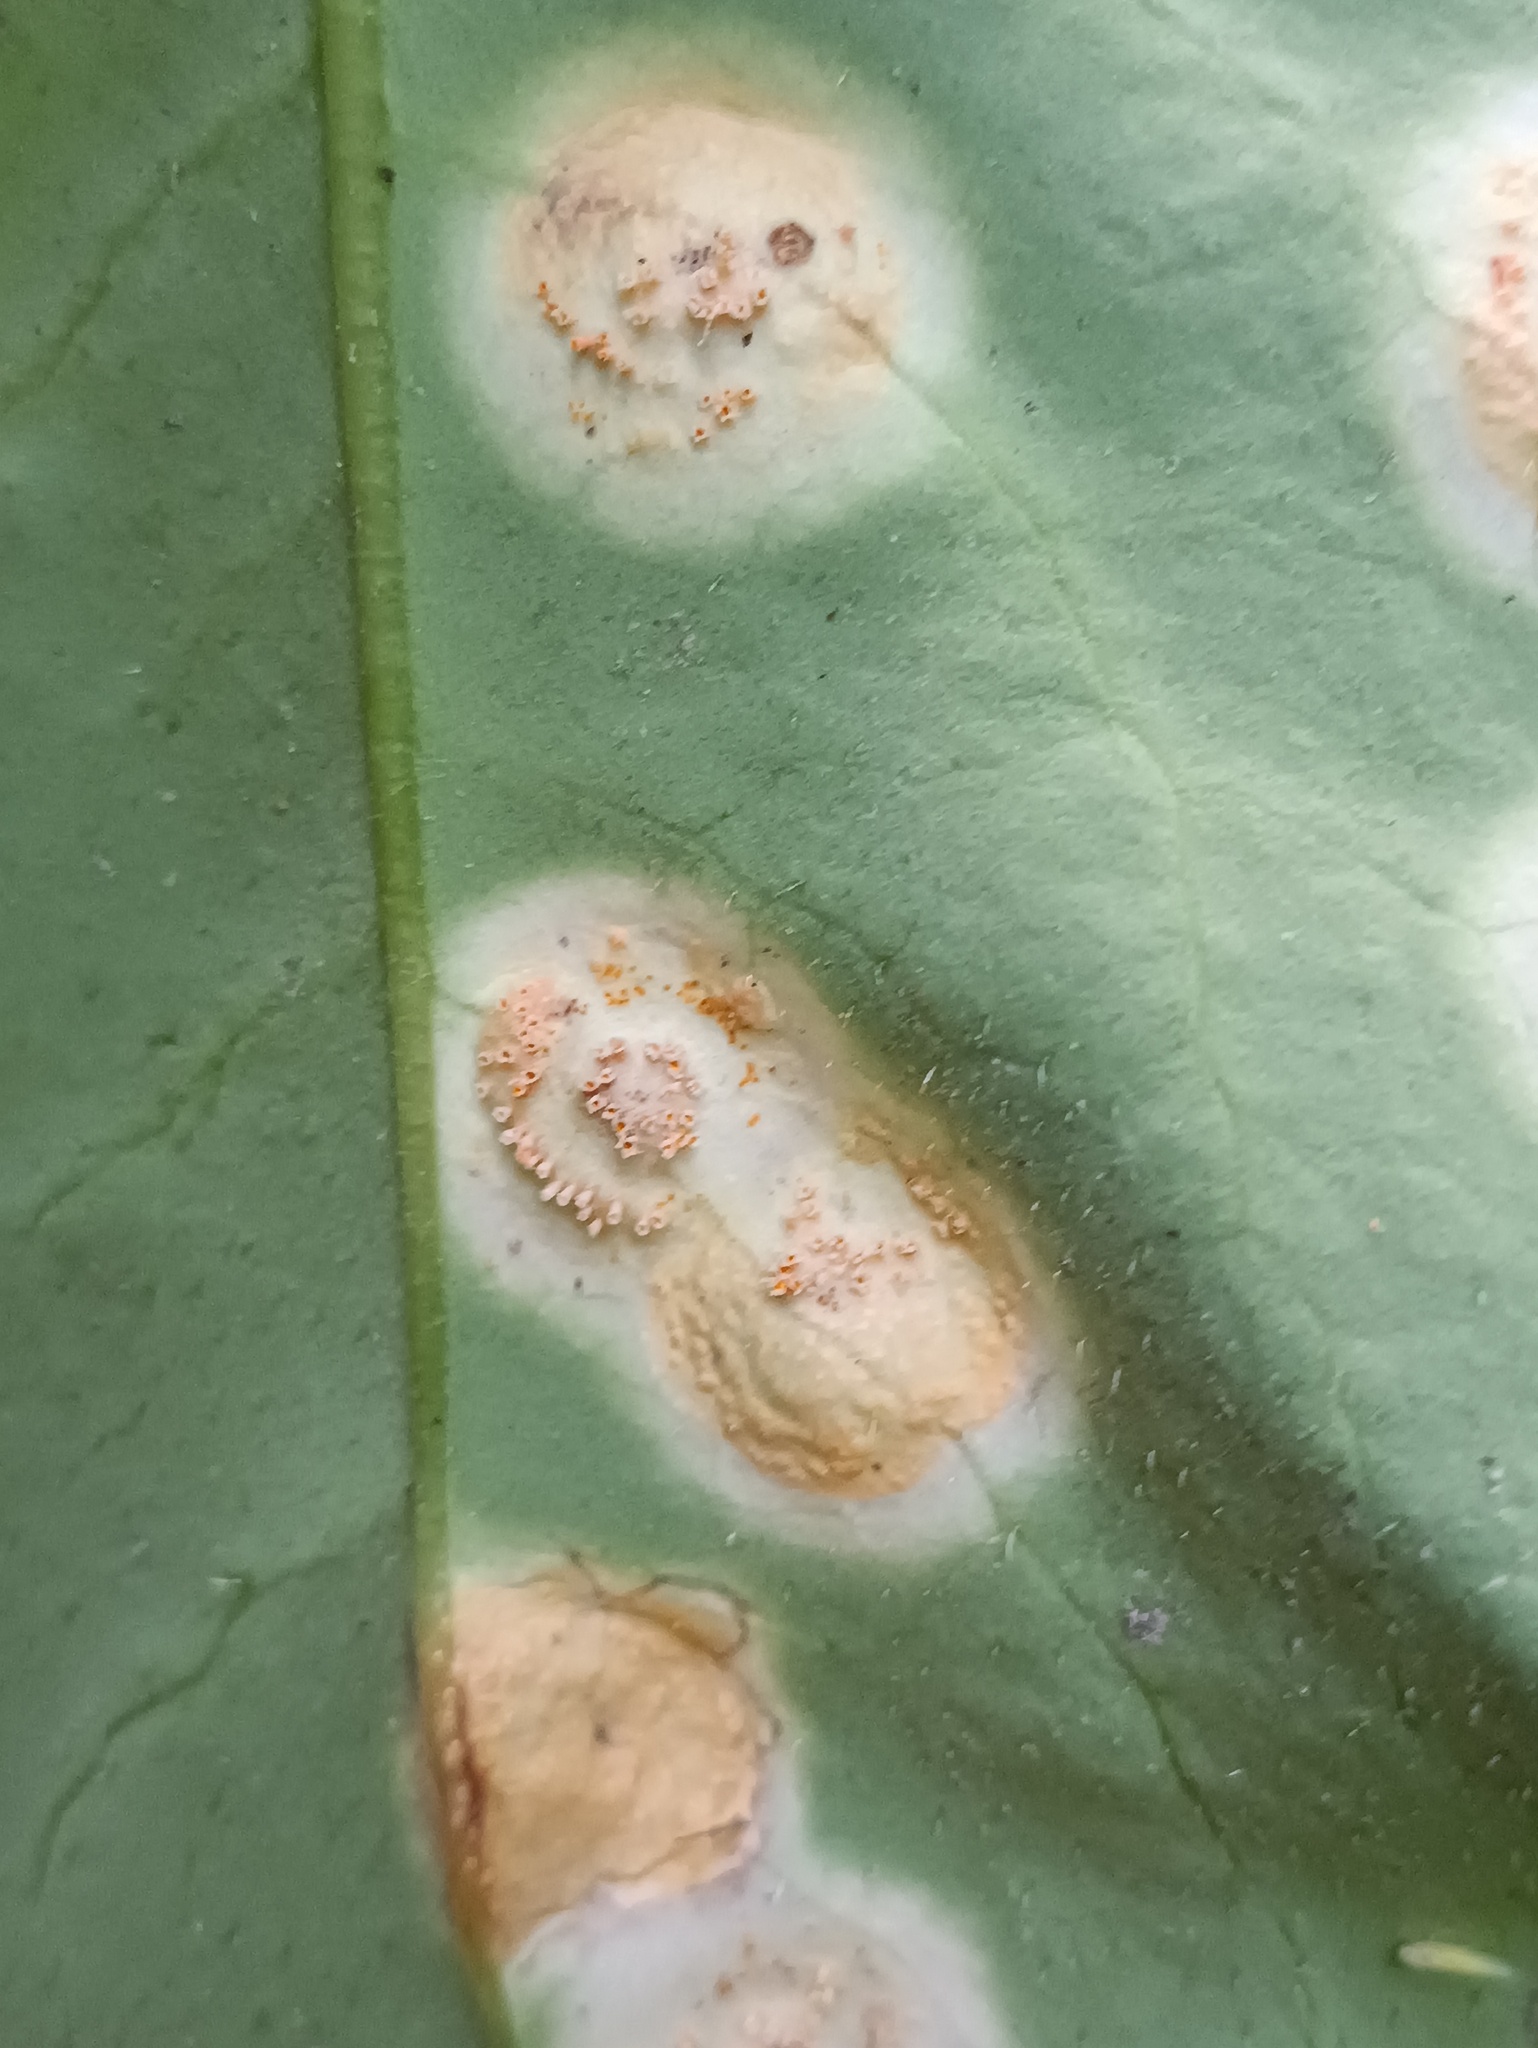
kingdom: Fungi
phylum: Basidiomycota
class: Pucciniomycetes
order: Pucciniales
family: Pucciniaceae
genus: Puccinia
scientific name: Puccinia bromina
